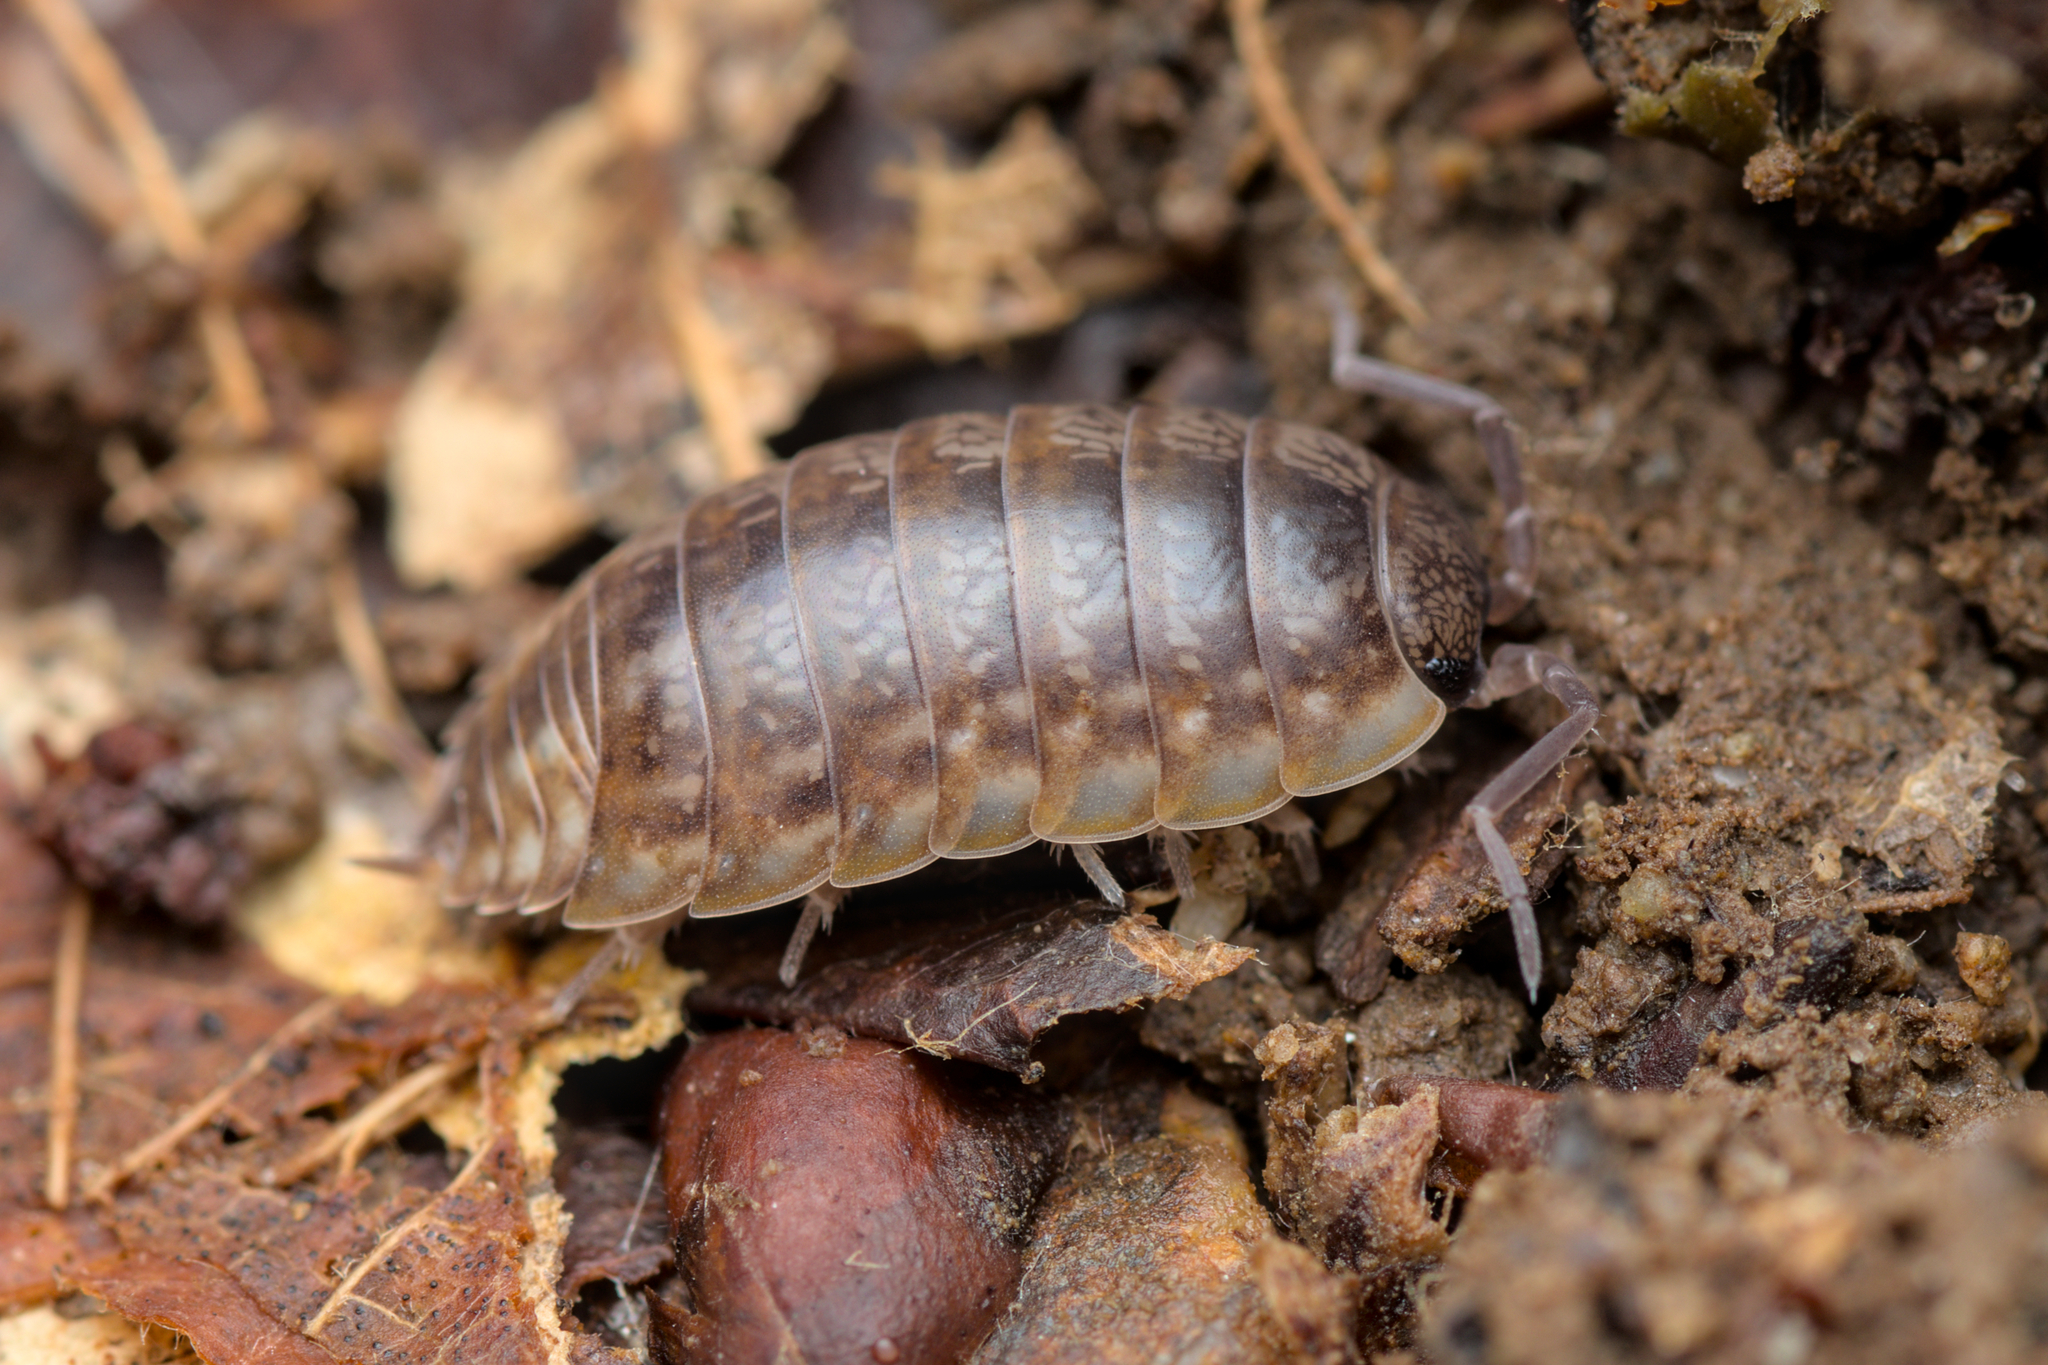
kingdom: Animalia
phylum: Arthropoda
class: Malacostraca
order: Isopoda
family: Porcellionidae
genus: Porcellio
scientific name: Porcellio gallicus
